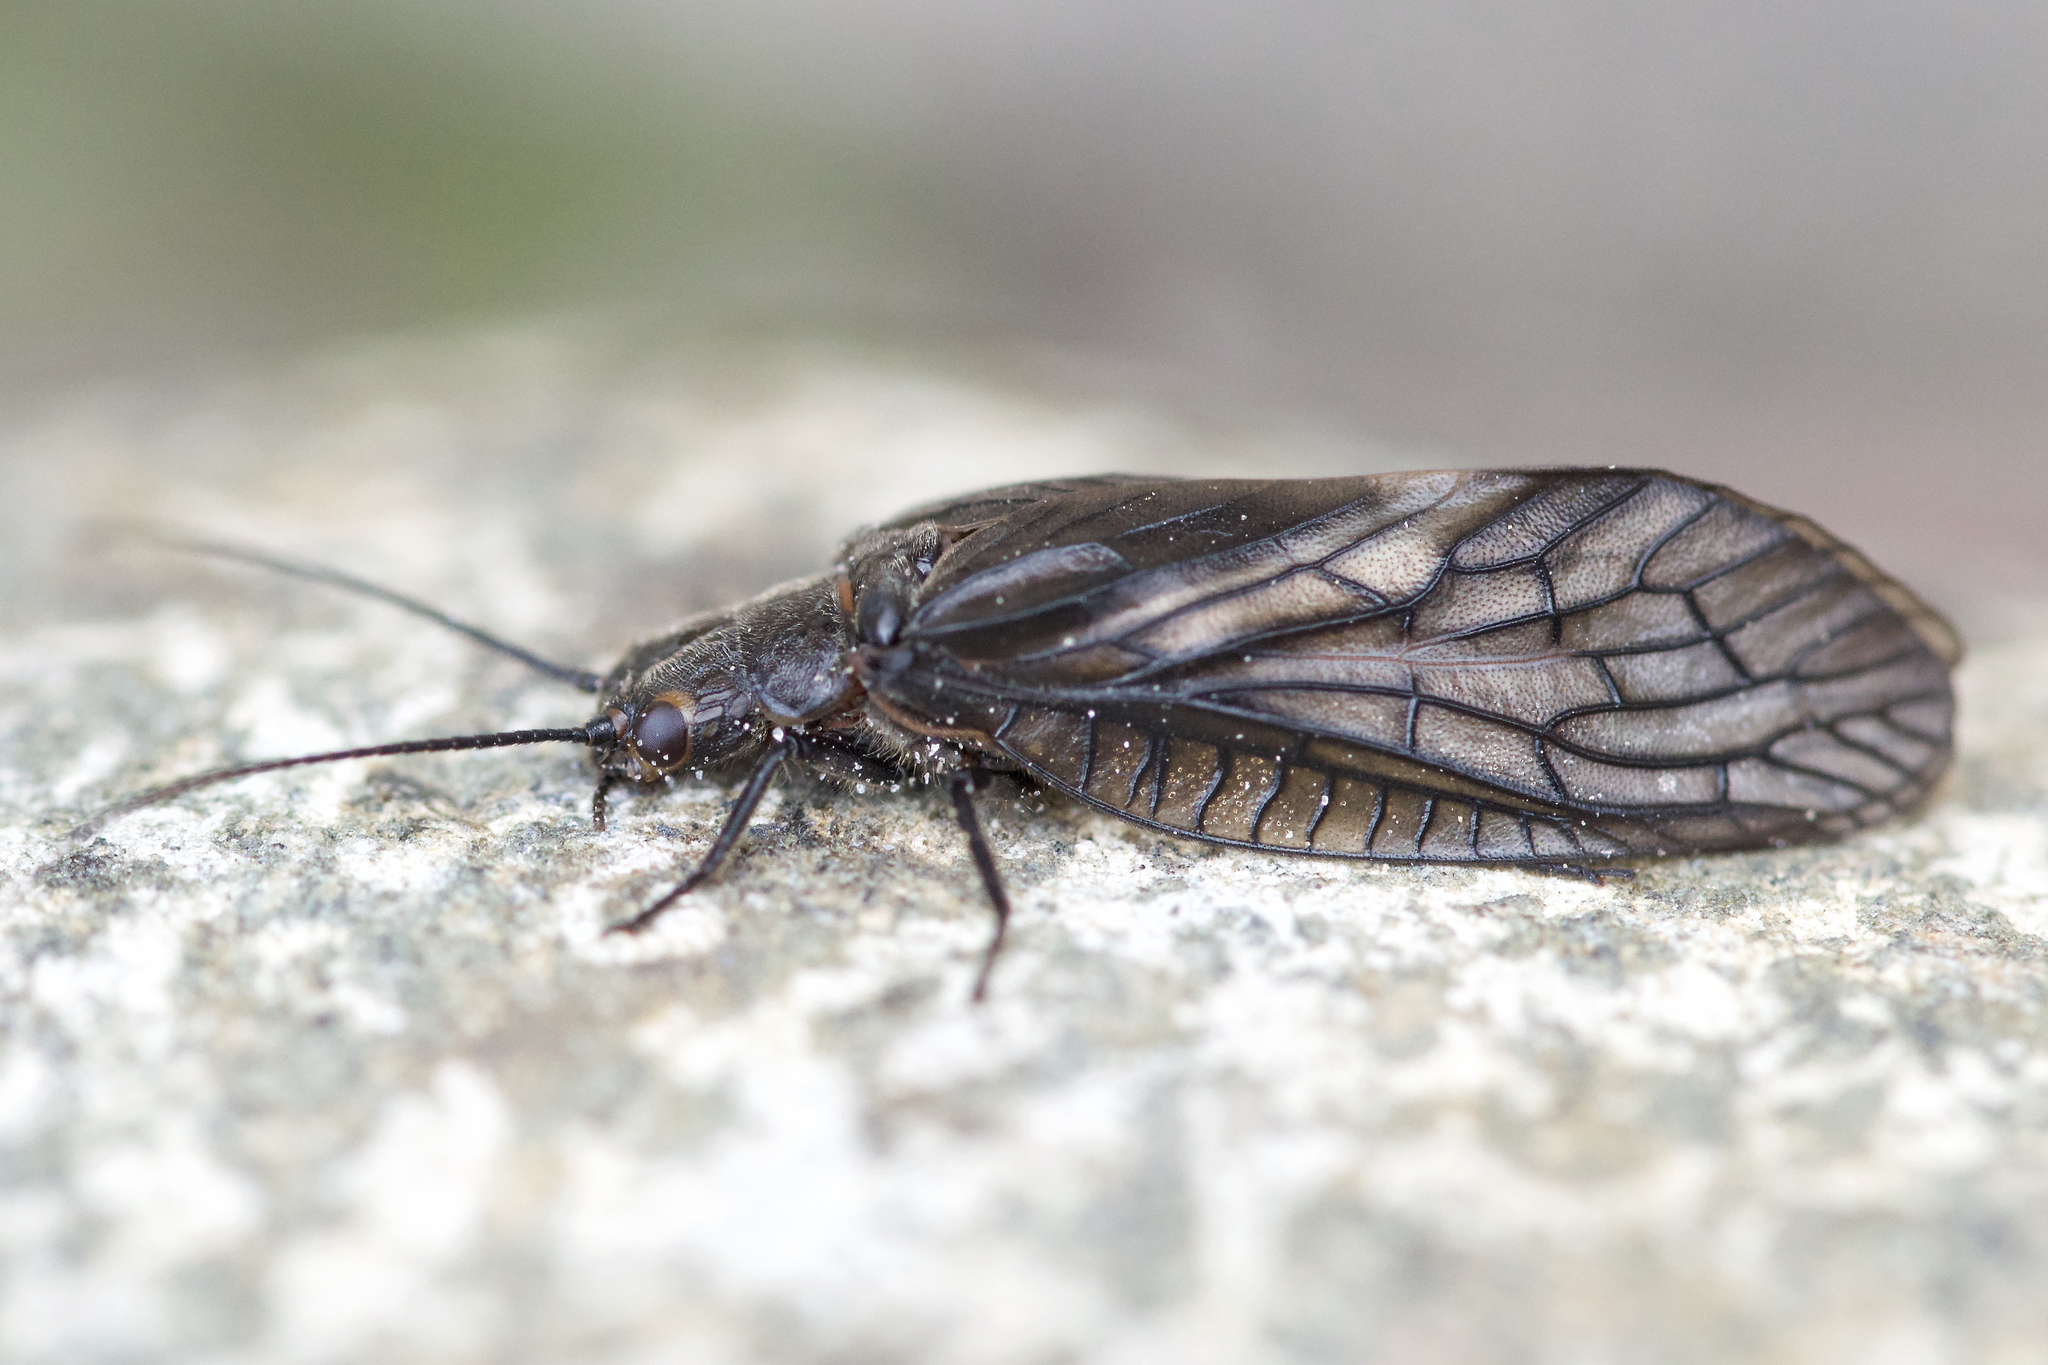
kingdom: Animalia
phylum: Arthropoda
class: Insecta
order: Megaloptera
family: Sialidae
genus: Sialis
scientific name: Sialis
